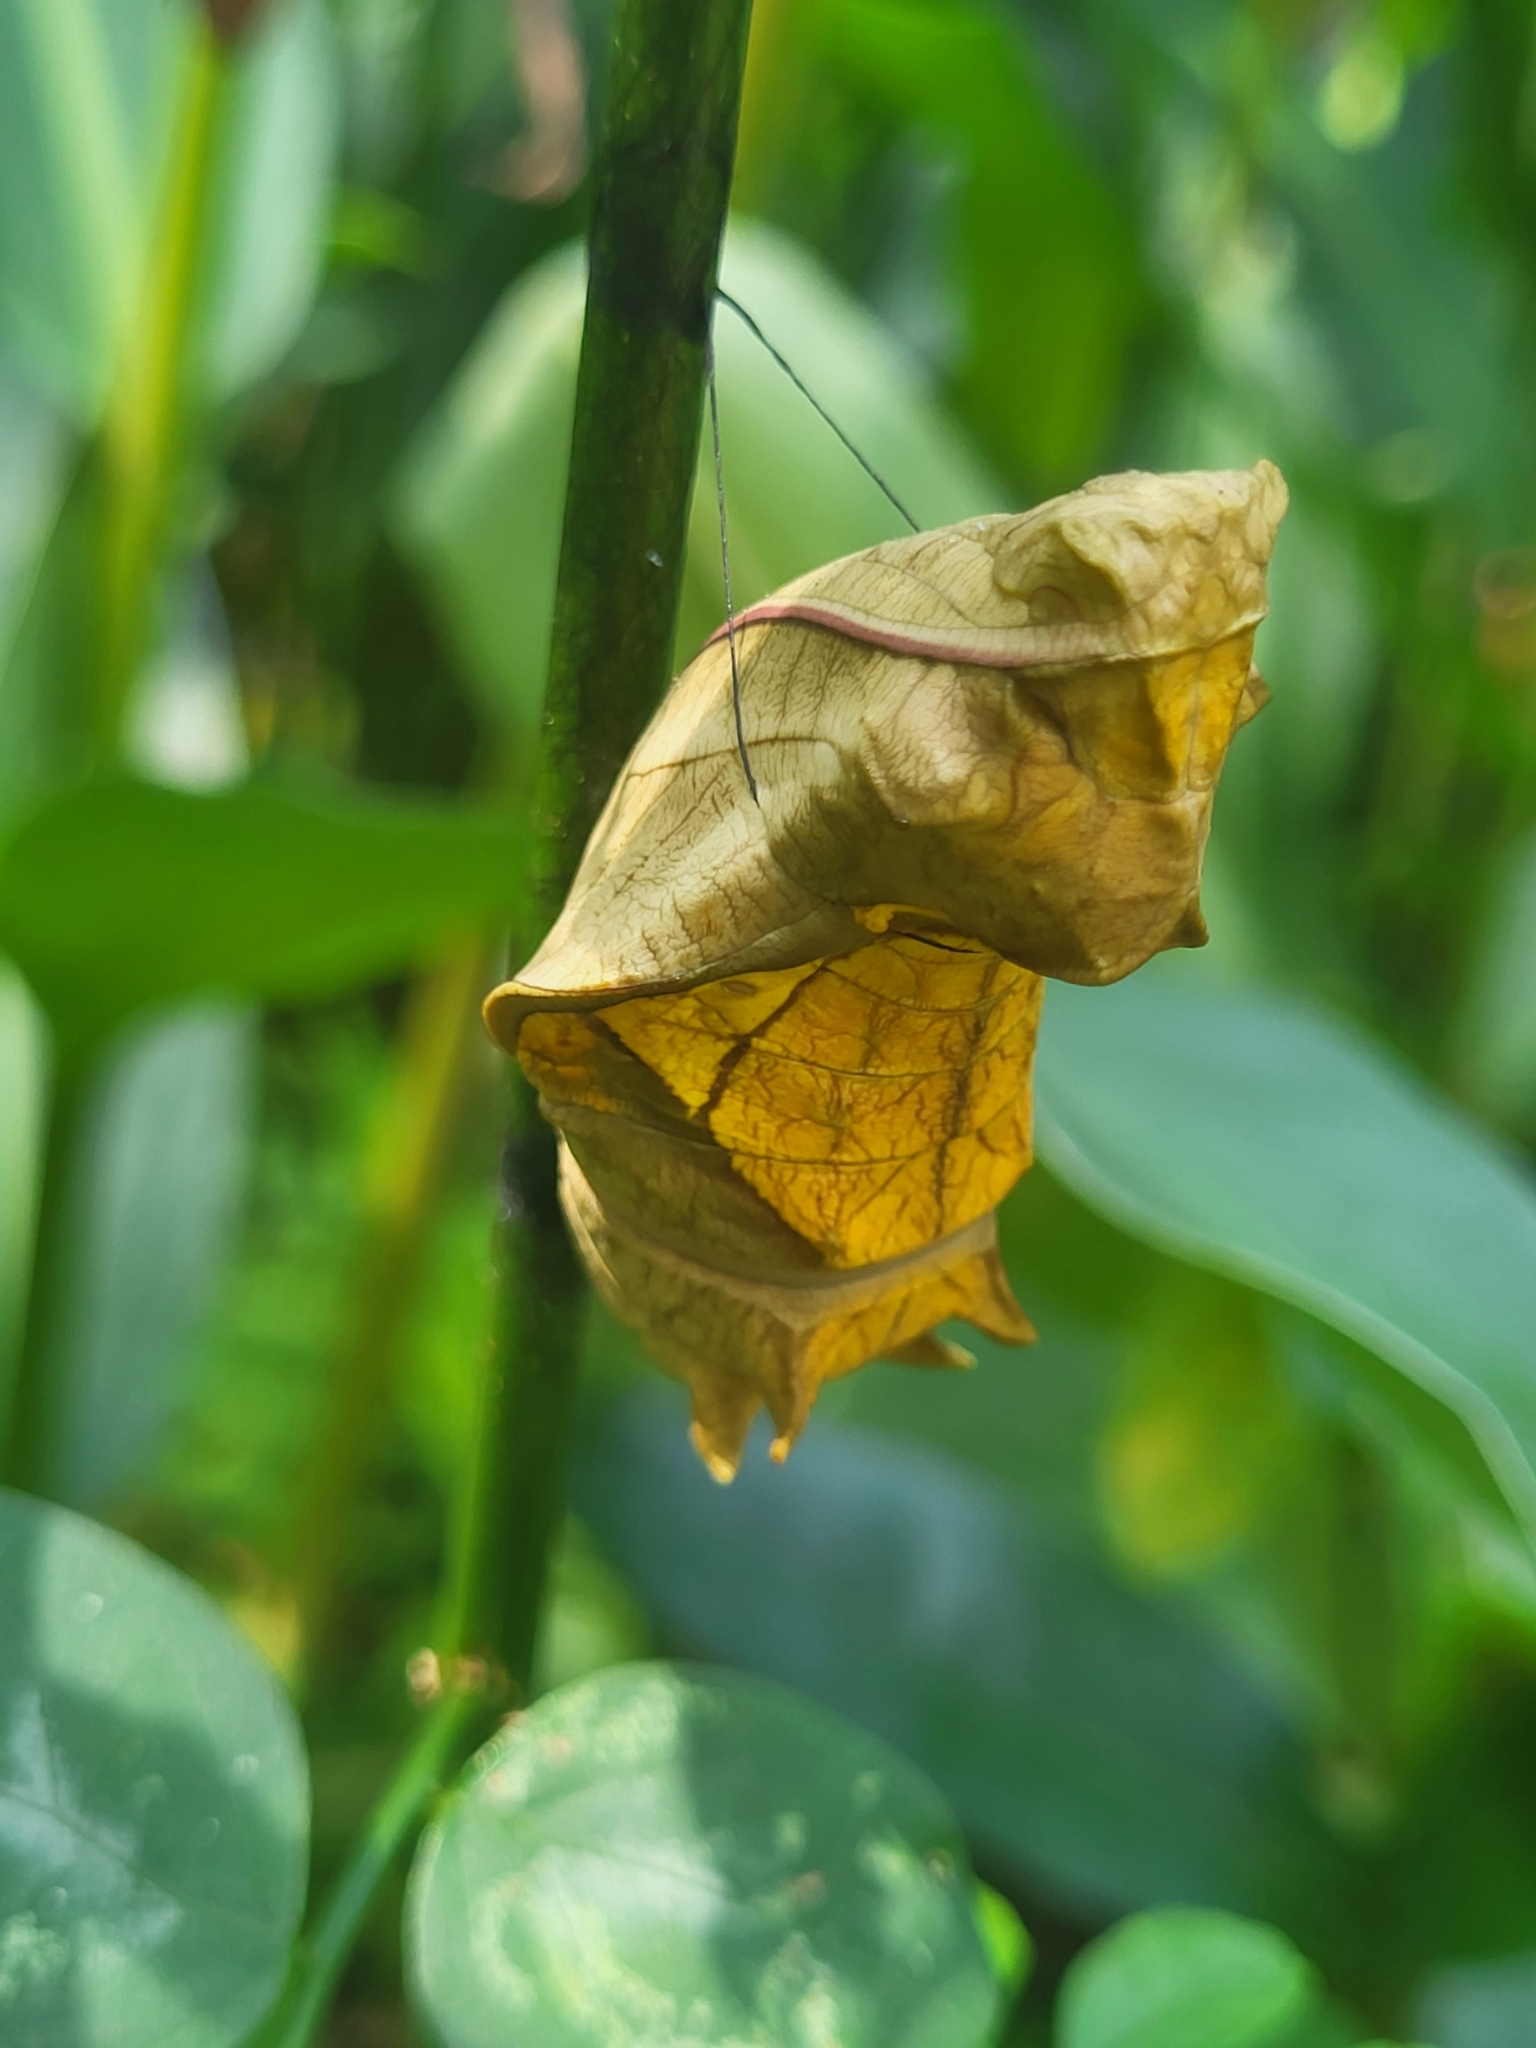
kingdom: Animalia
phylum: Arthropoda
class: Insecta
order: Lepidoptera
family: Papilionidae
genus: Troides
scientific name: Troides minos
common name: Malabar birdwing
